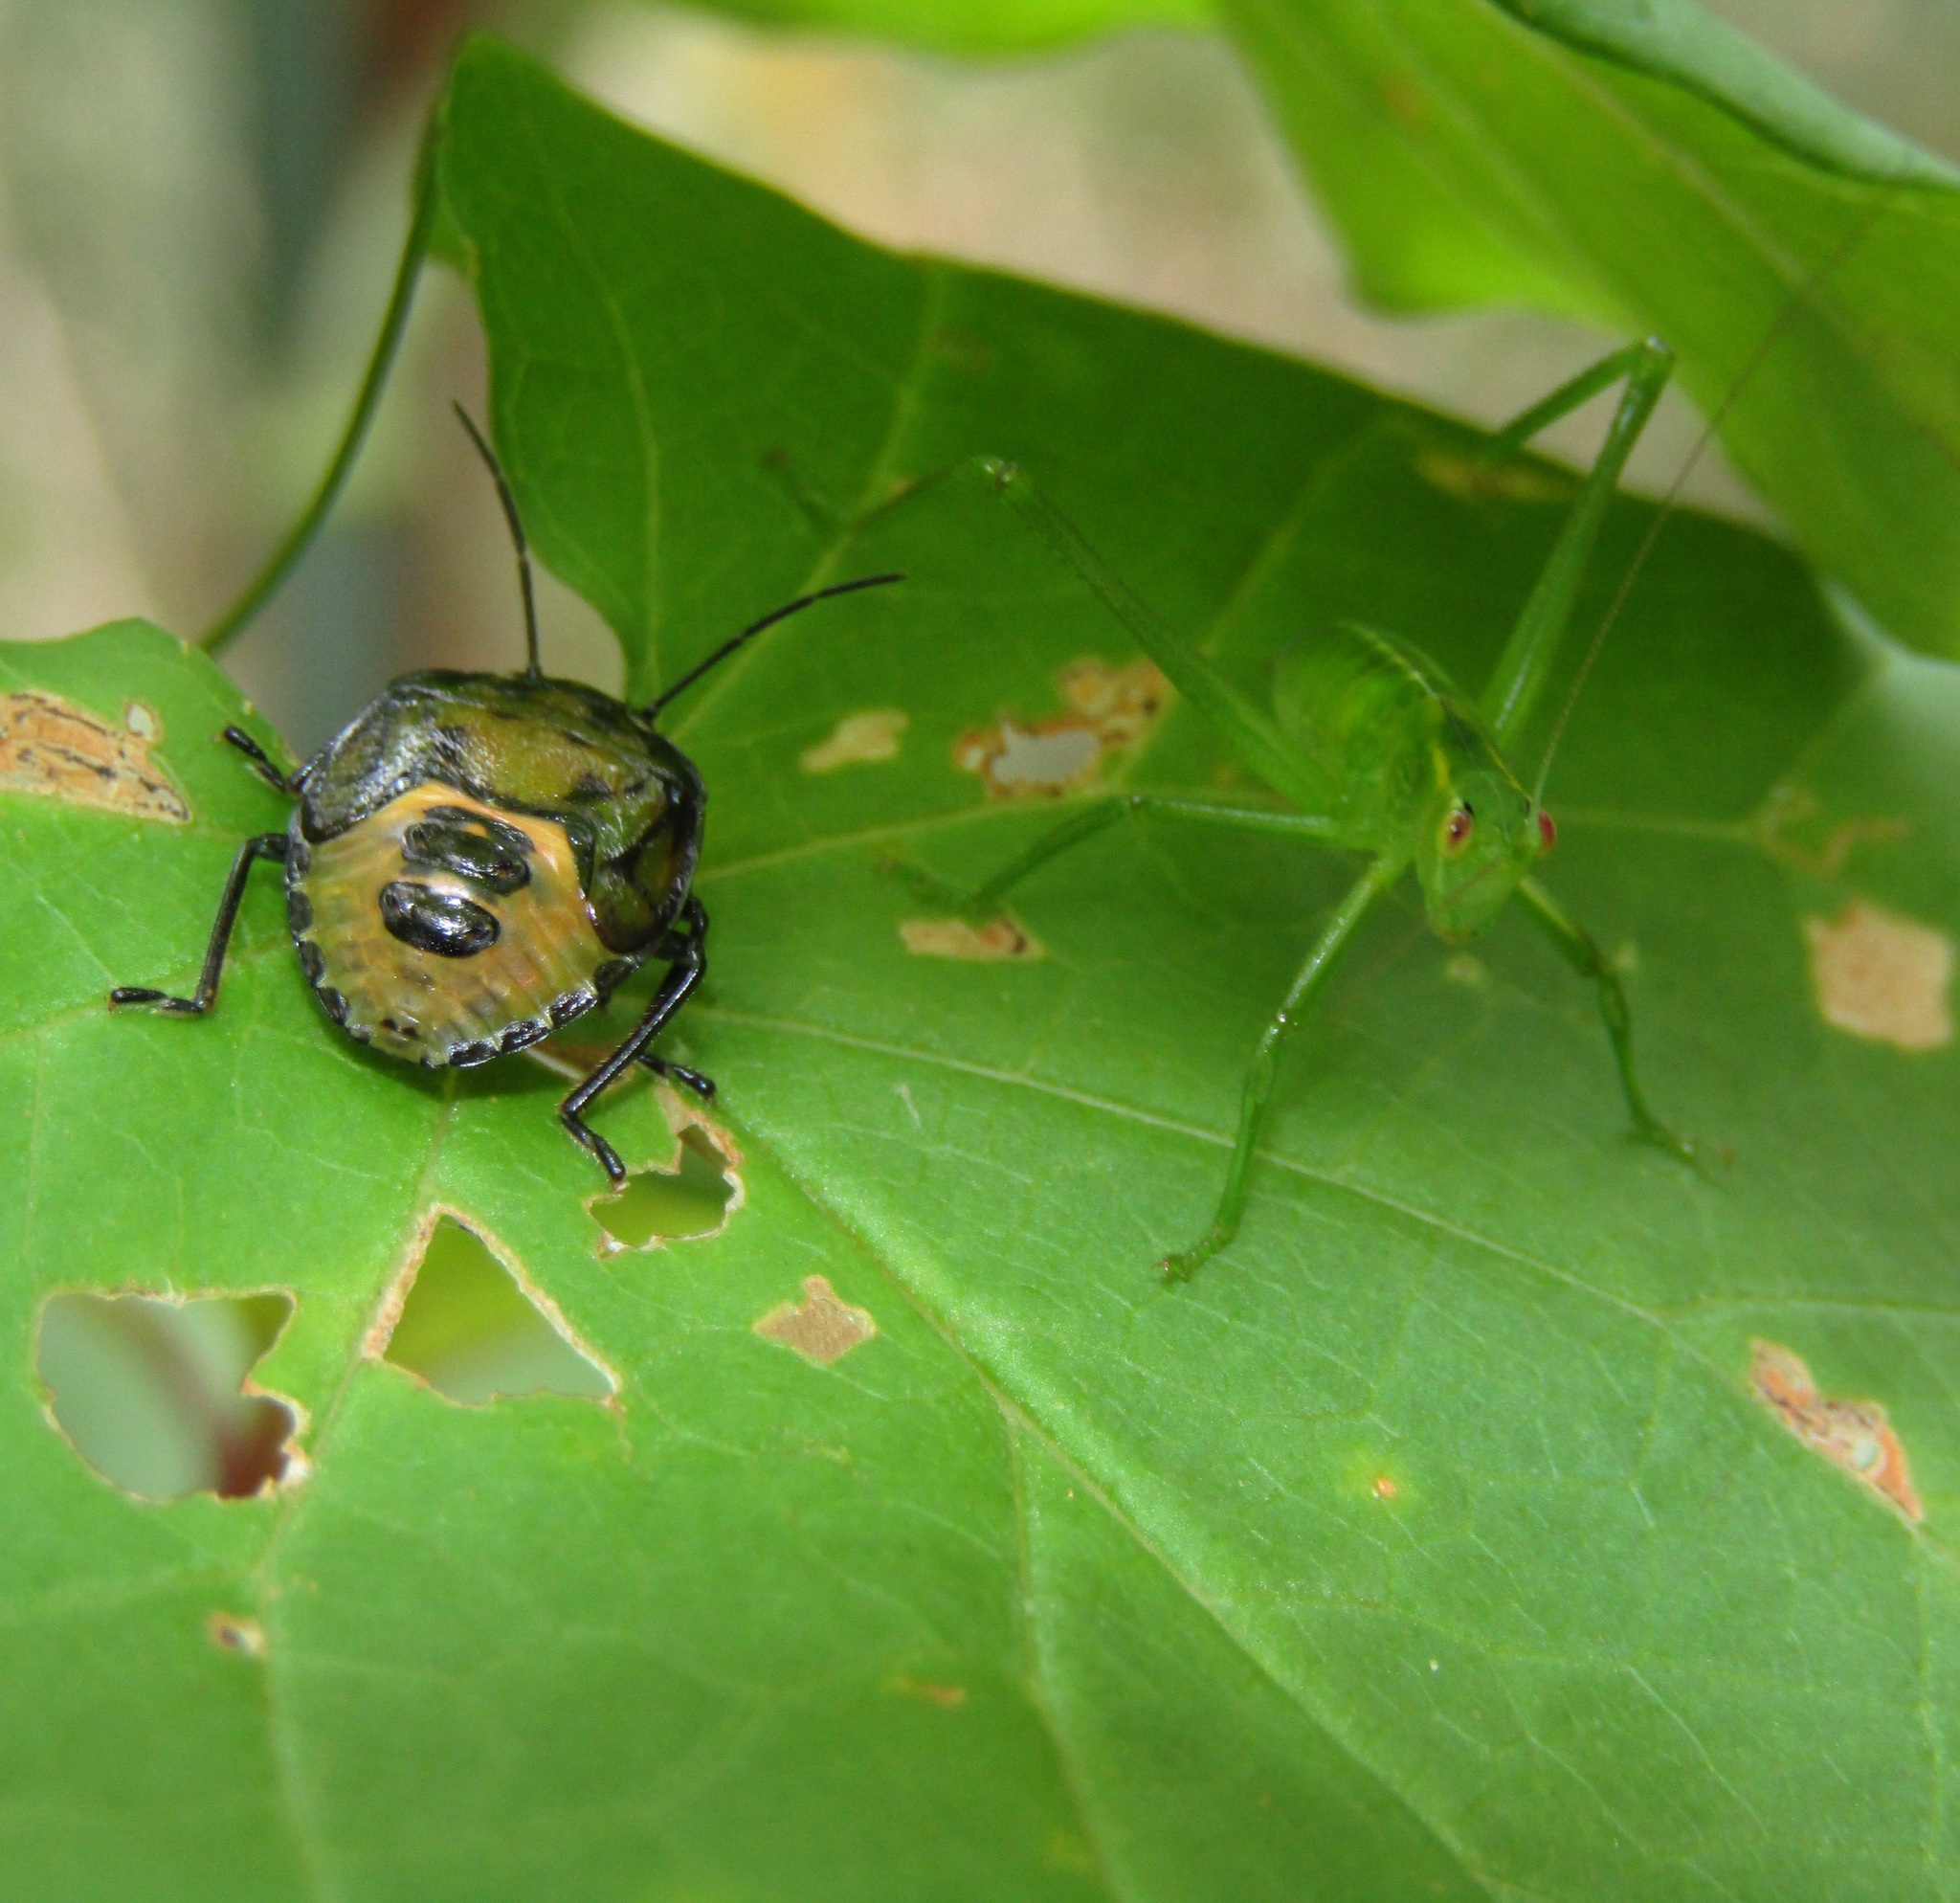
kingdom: Animalia
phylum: Arthropoda
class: Insecta
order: Orthoptera
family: Tettigoniidae
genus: Caedicia
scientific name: Caedicia simplex
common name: Common garden katydid
